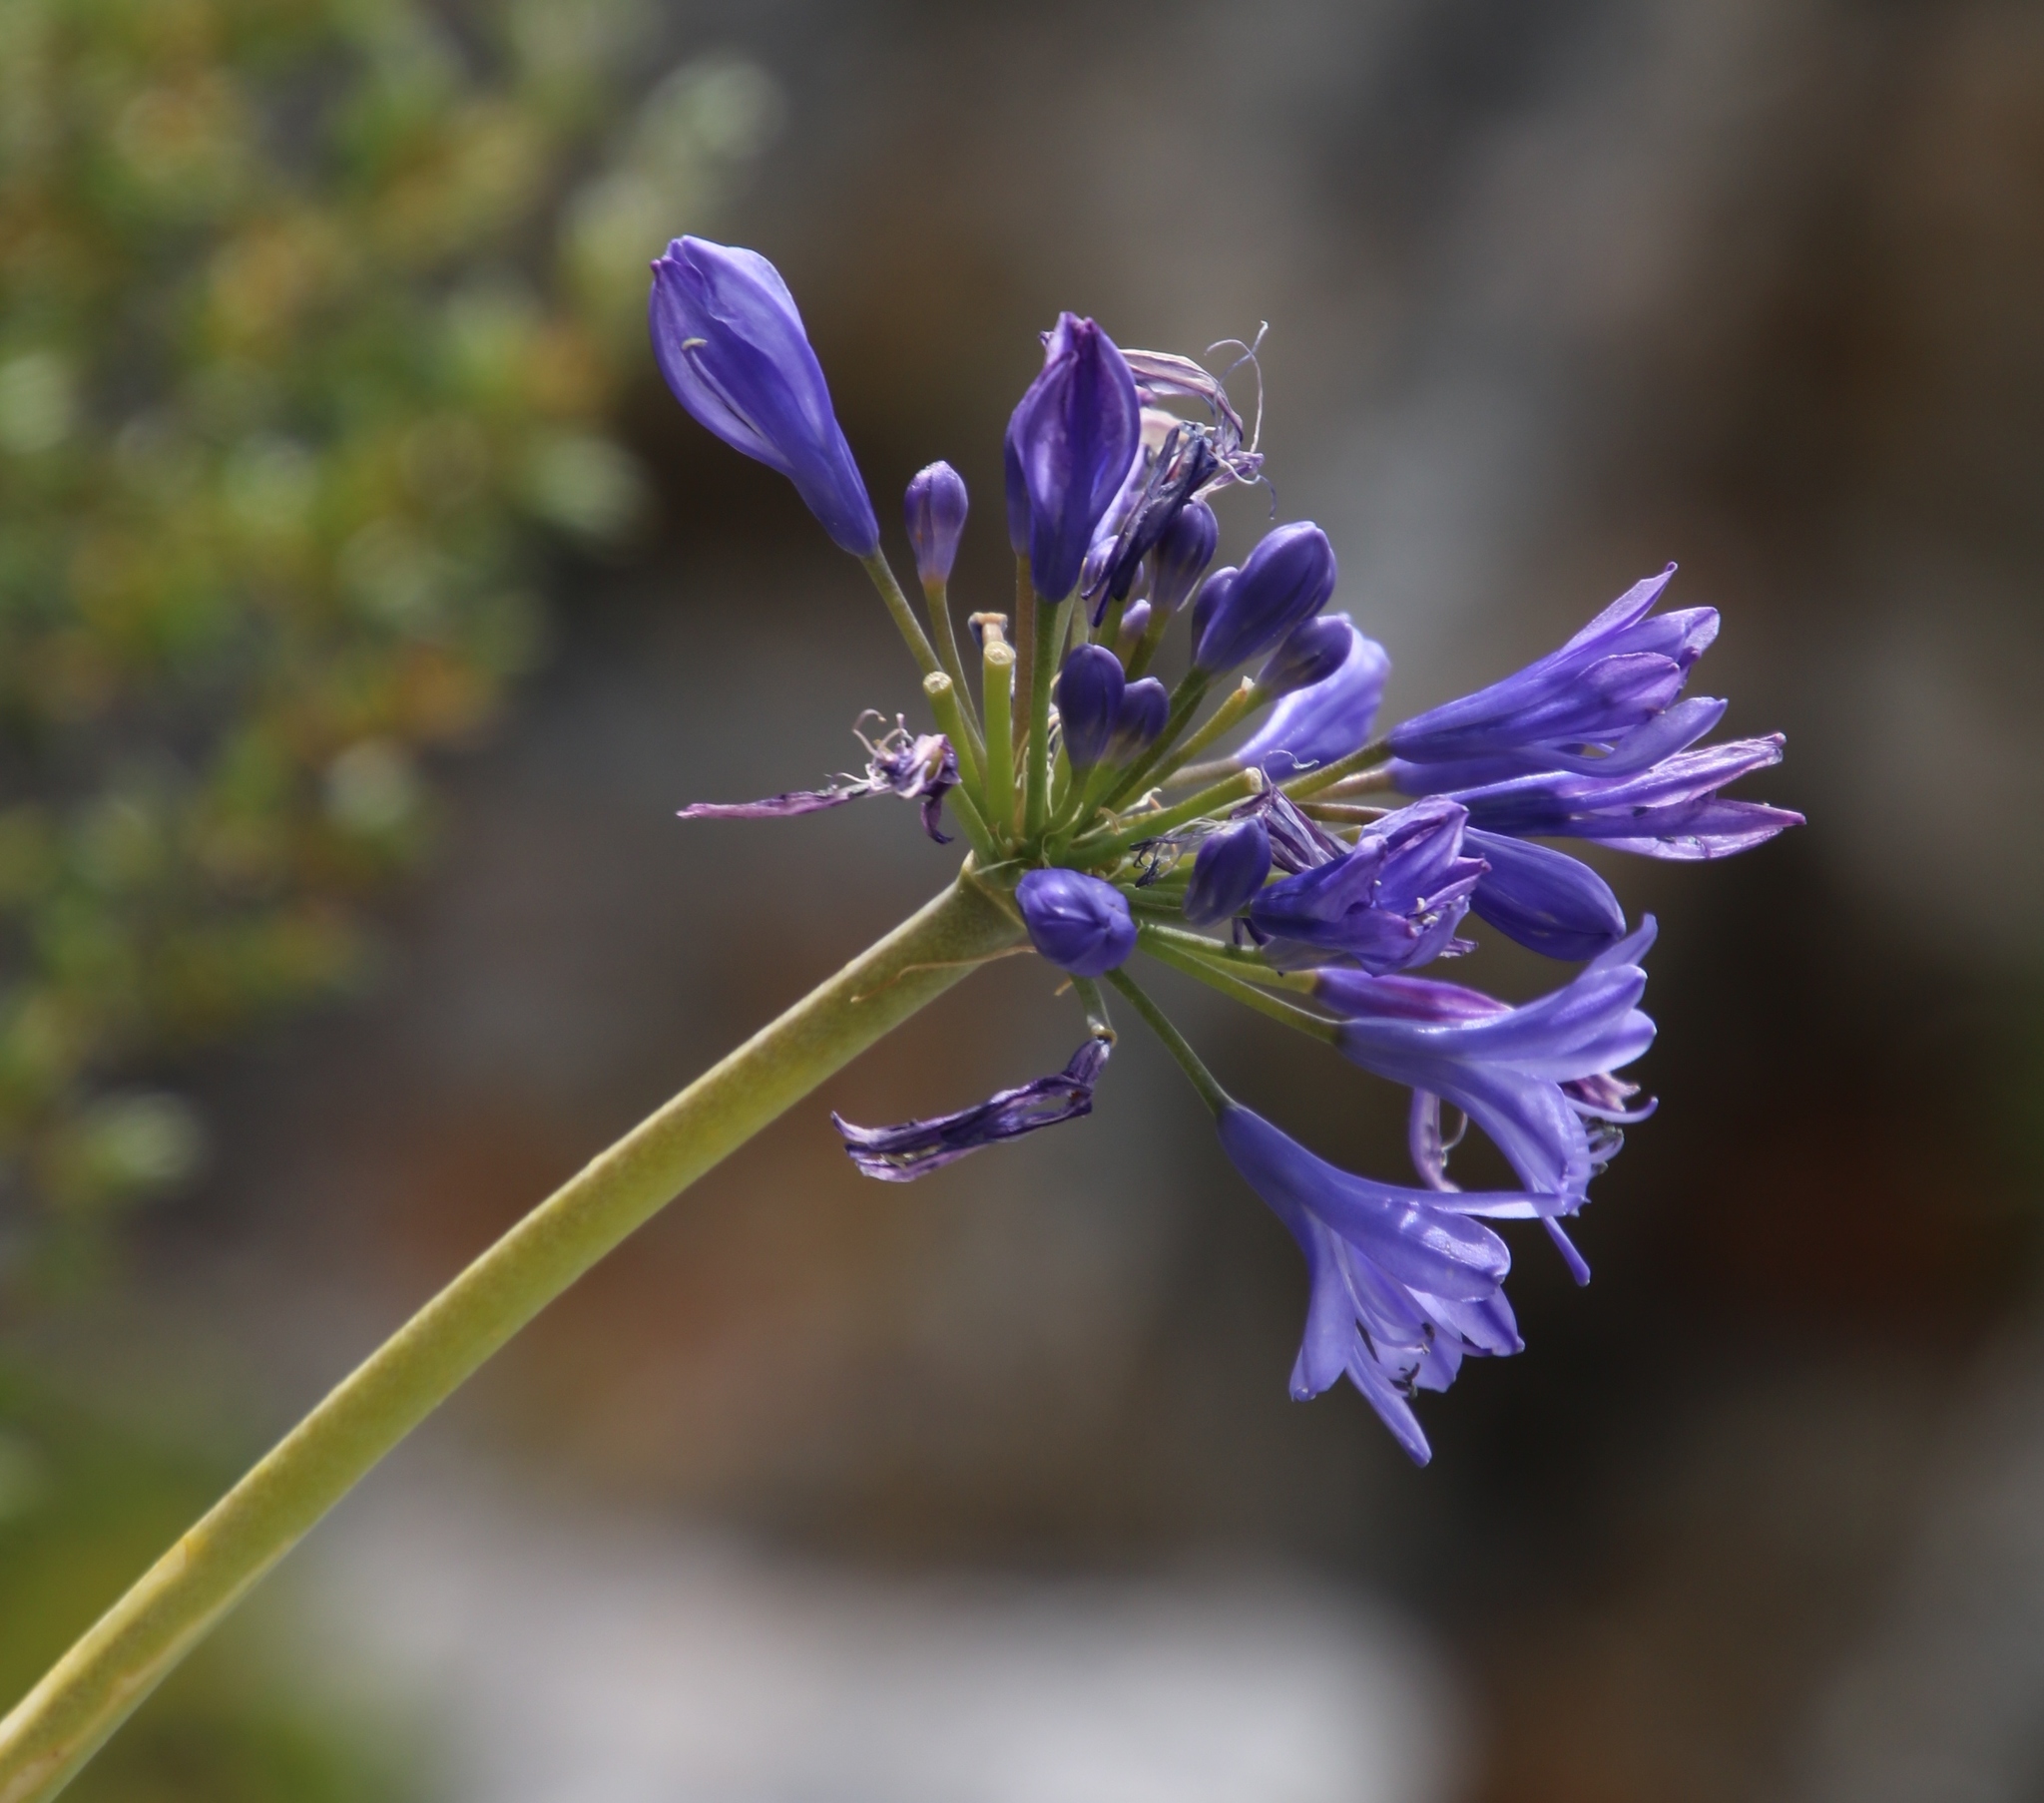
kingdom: Plantae
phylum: Tracheophyta
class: Liliopsida
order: Asparagales
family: Amaryllidaceae
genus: Agapanthus
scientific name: Agapanthus africanus
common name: Lily-of-the-nile
